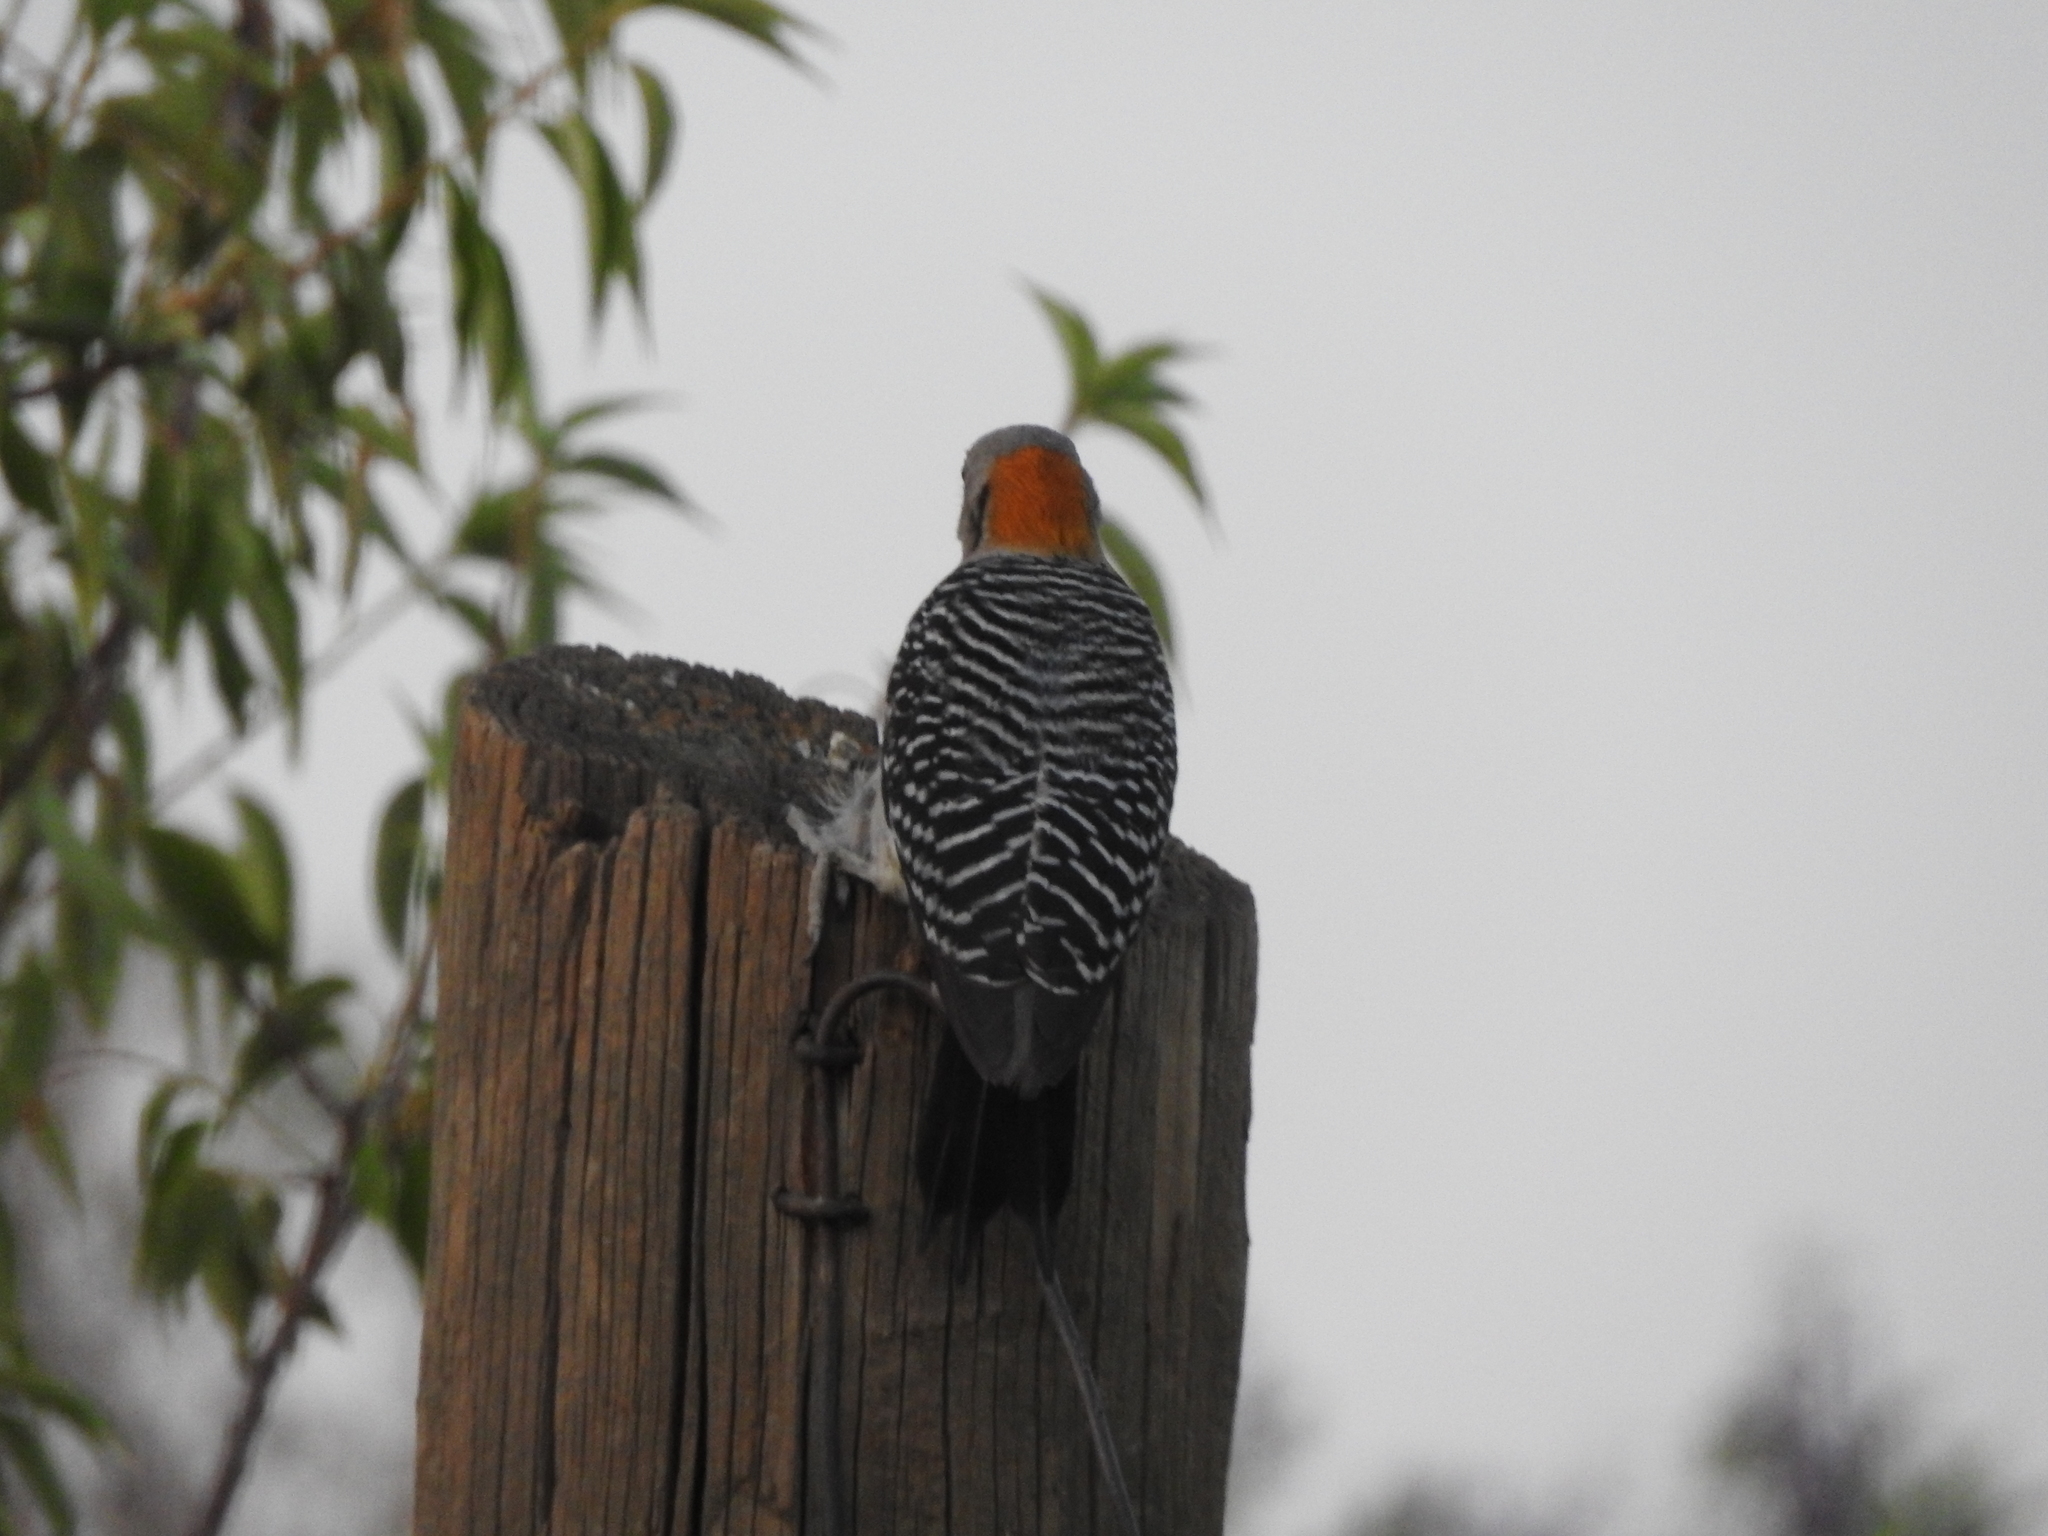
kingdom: Animalia
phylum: Chordata
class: Aves
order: Piciformes
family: Picidae
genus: Melanerpes
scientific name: Melanerpes aurifrons
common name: Golden-fronted woodpecker
